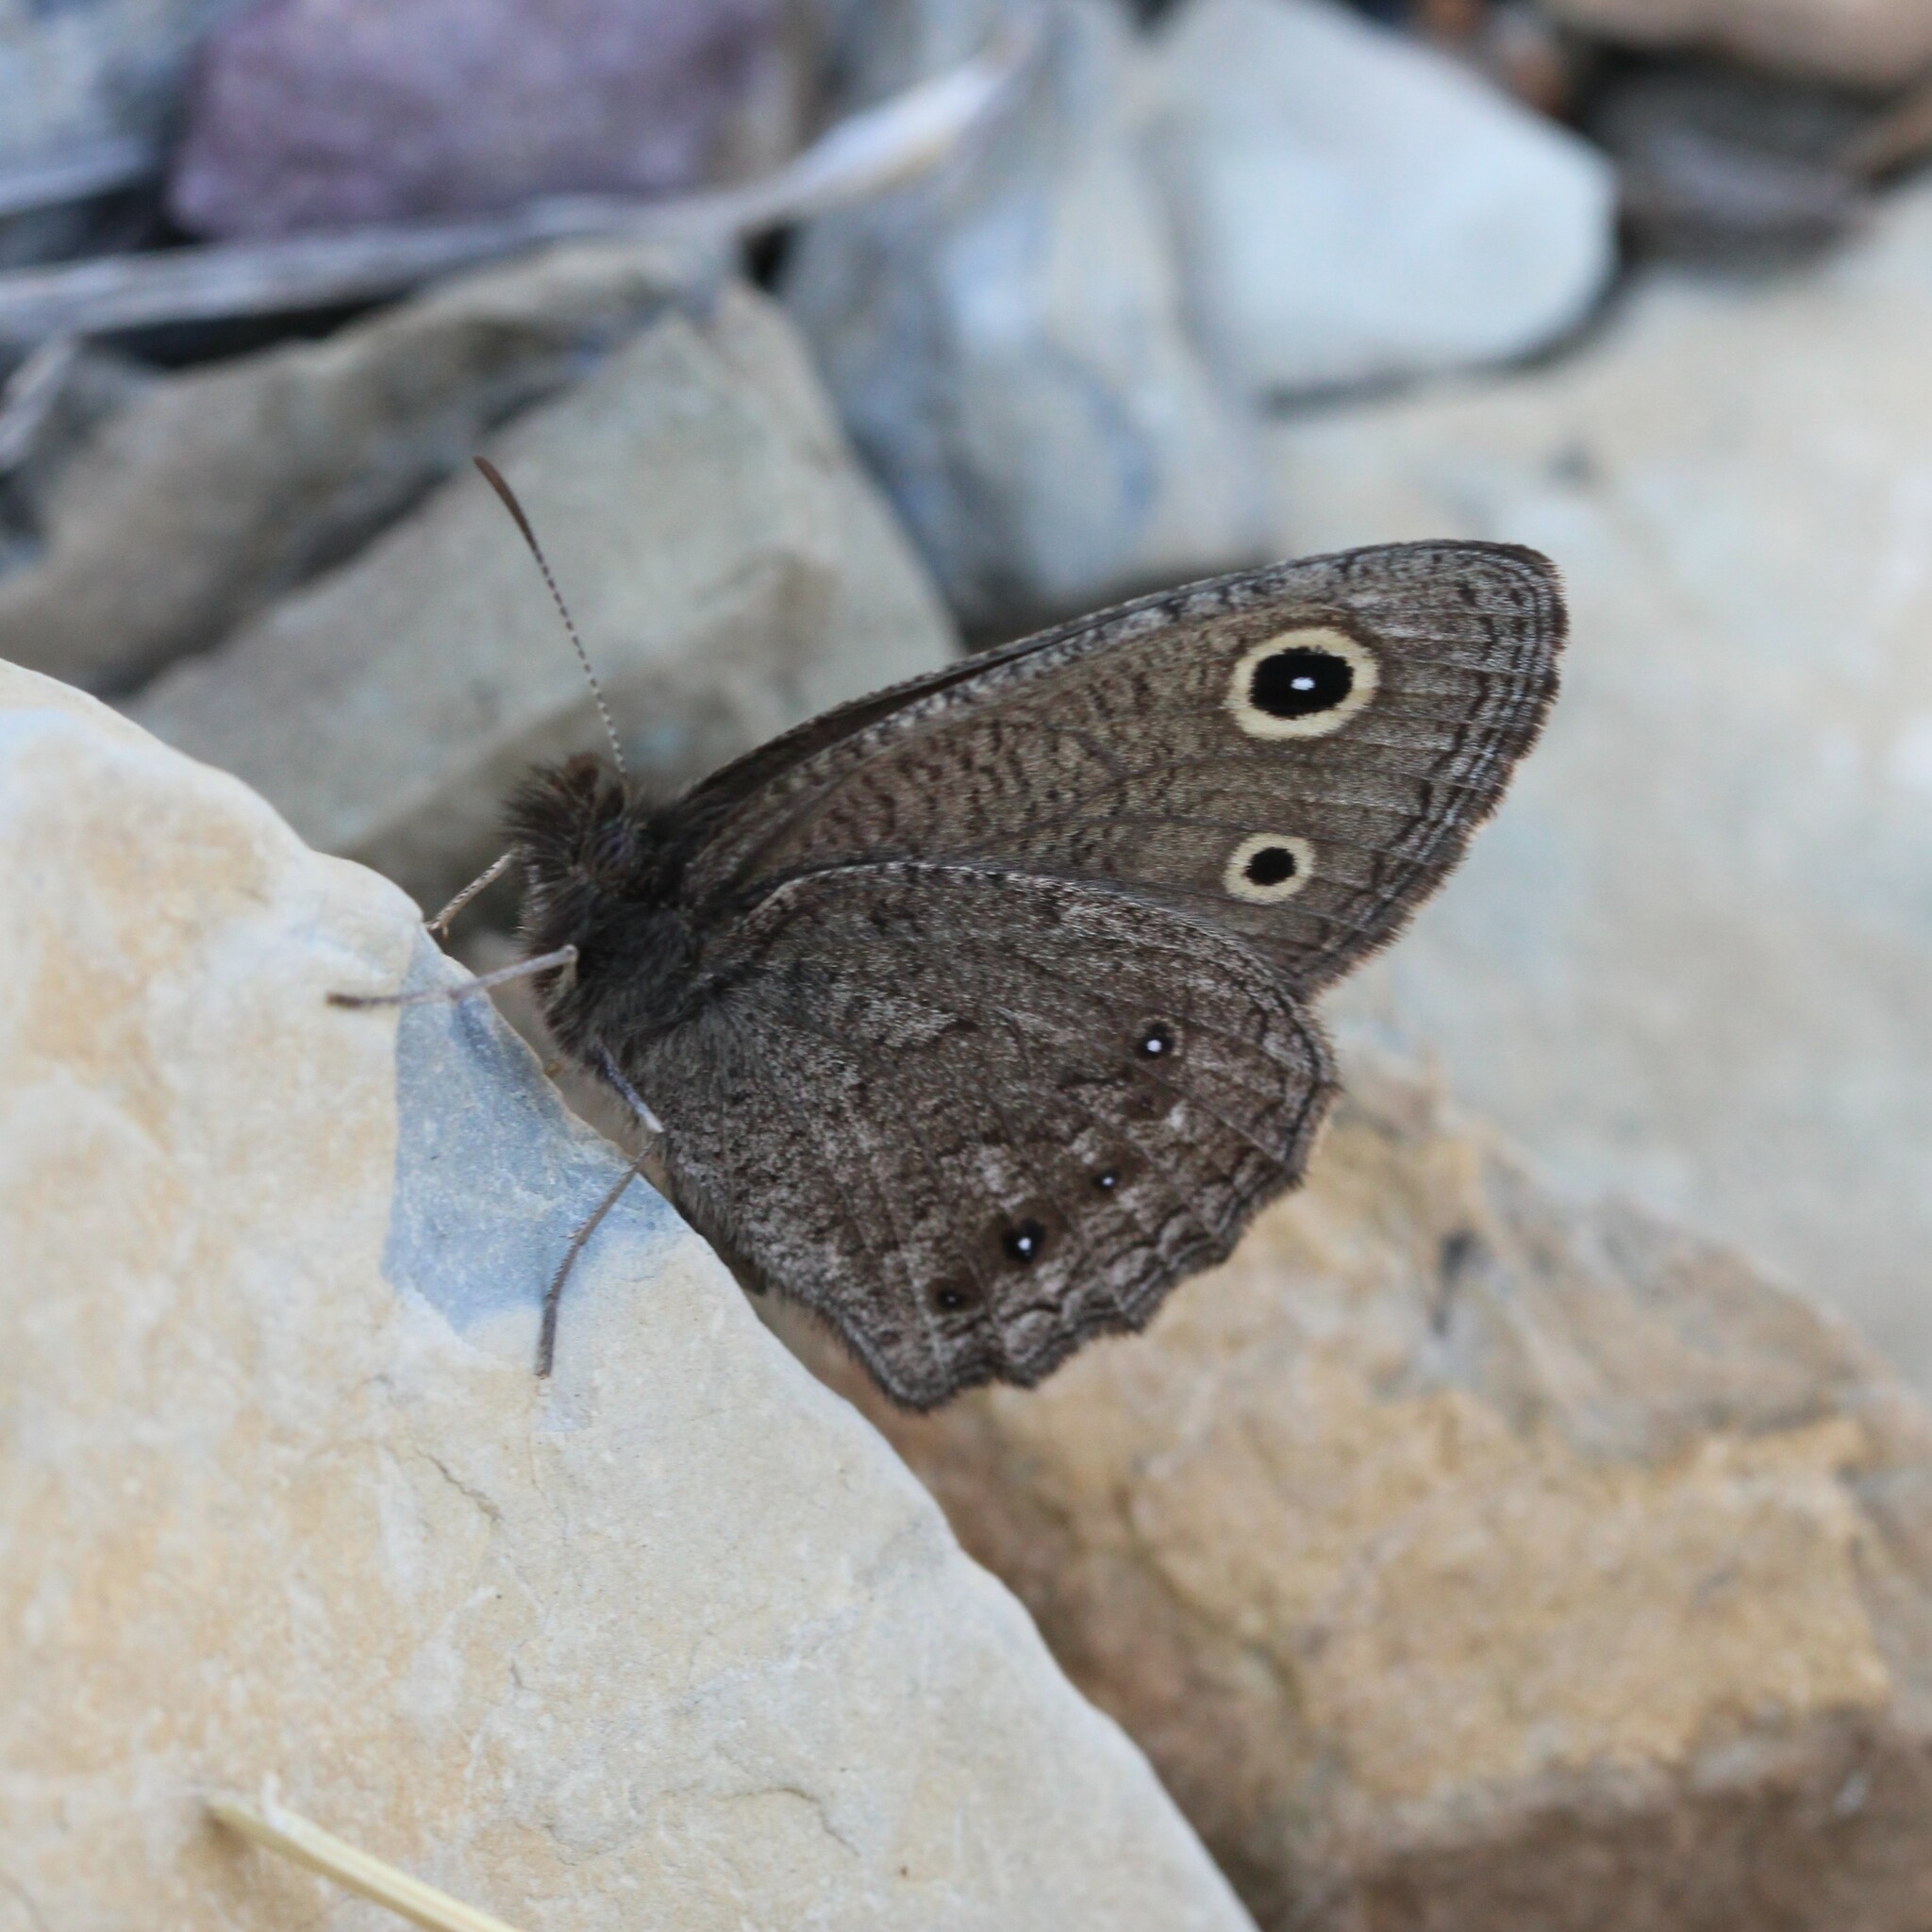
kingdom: Animalia
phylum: Arthropoda
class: Insecta
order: Lepidoptera
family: Nymphalidae
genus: Cercyonis
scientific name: Cercyonis oetus
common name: Small wood-nymph
